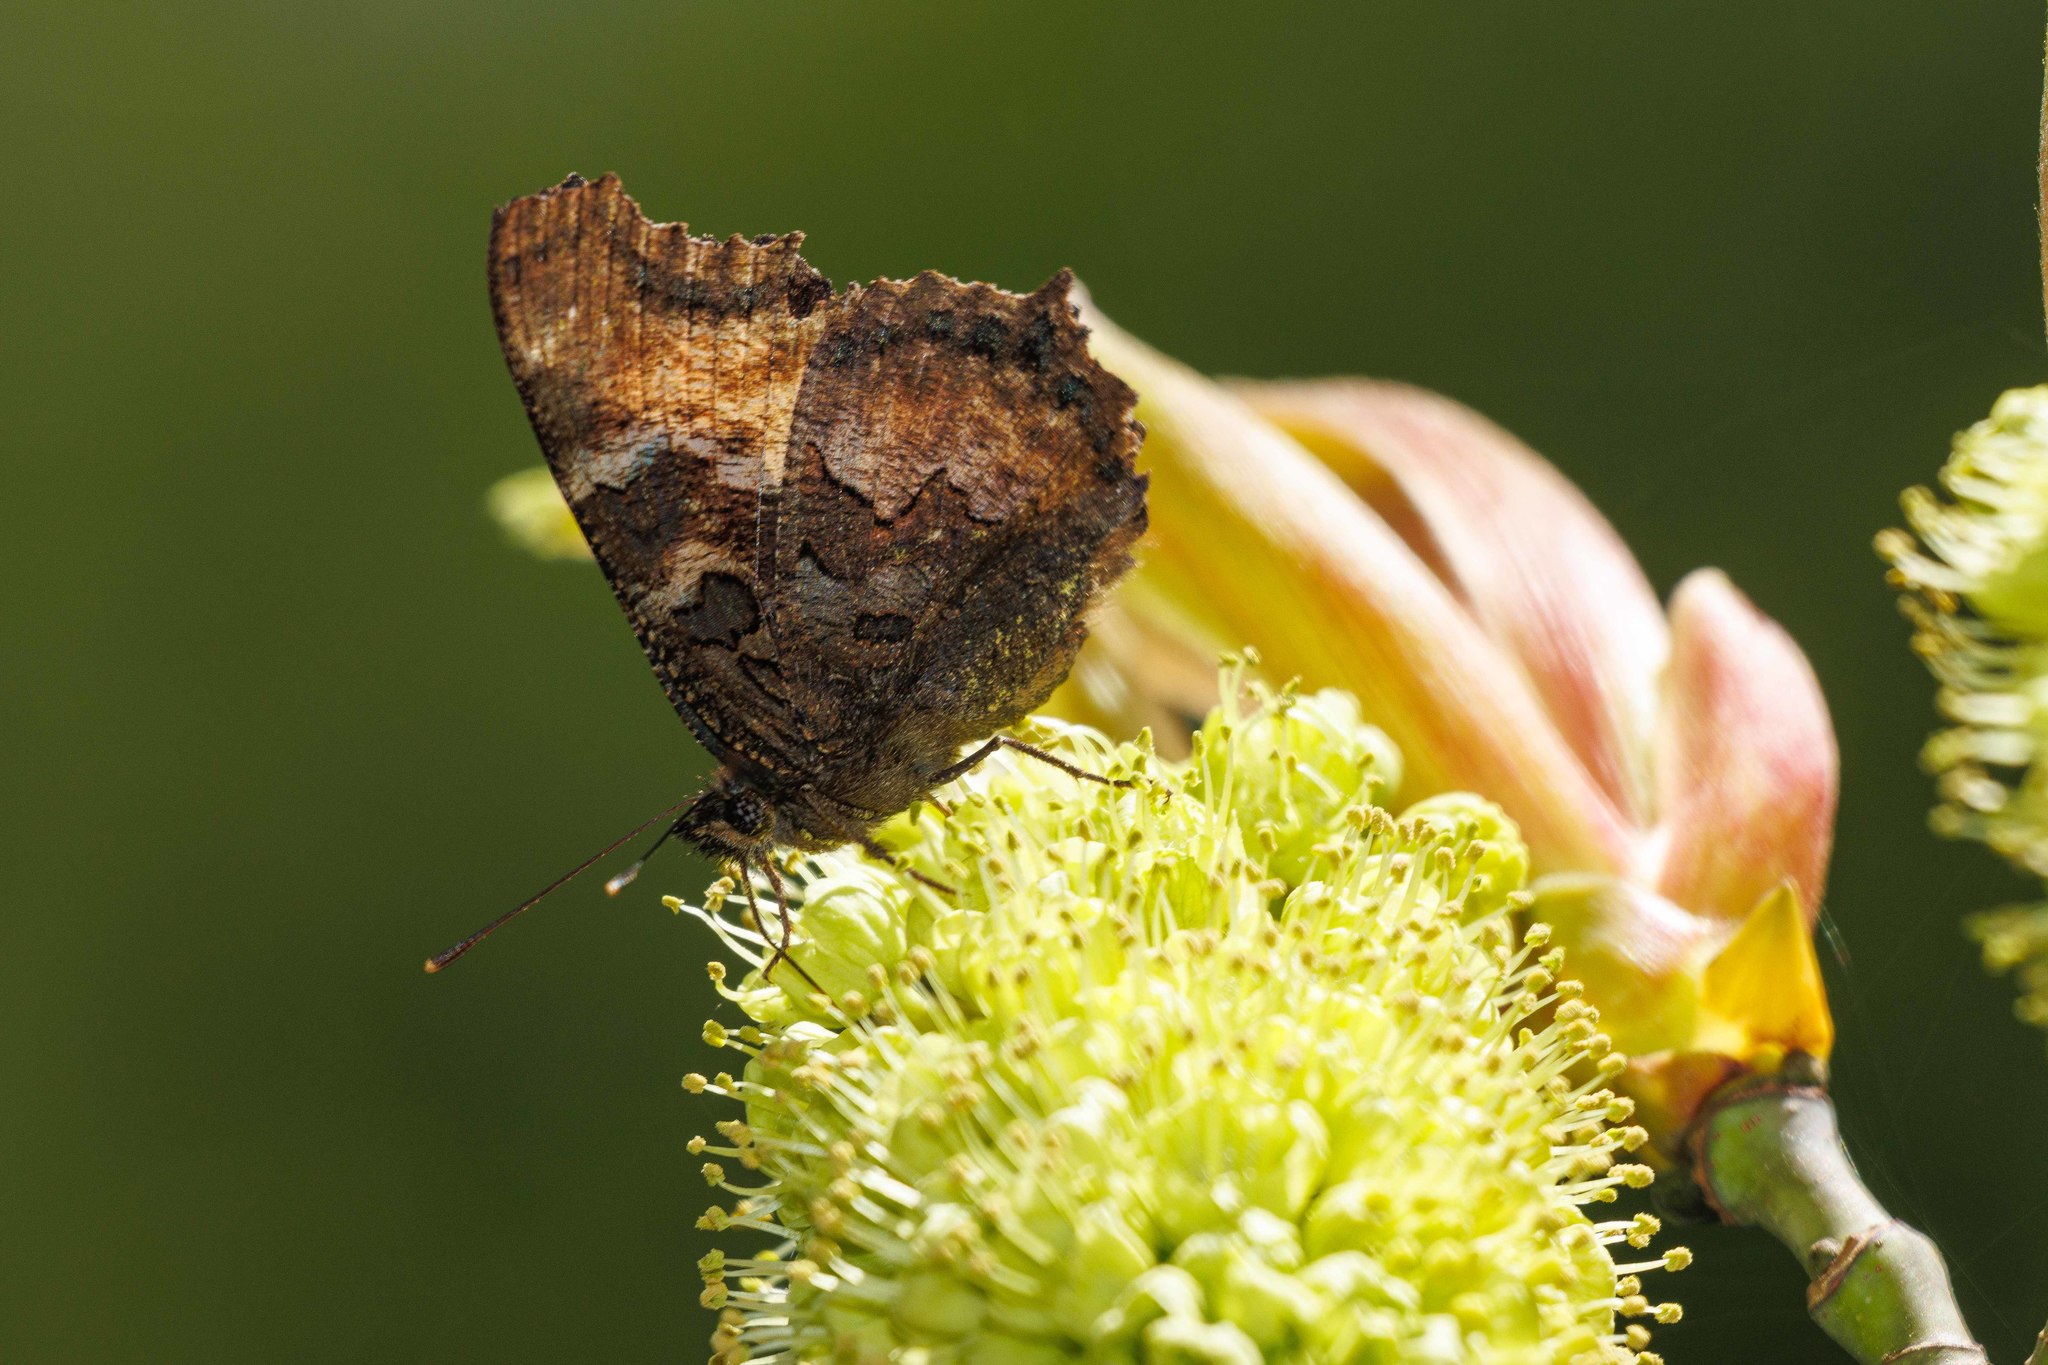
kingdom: Animalia
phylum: Arthropoda
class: Insecta
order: Lepidoptera
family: Nymphalidae
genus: Nymphalis
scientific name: Nymphalis californica
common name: California tortoiseshell
